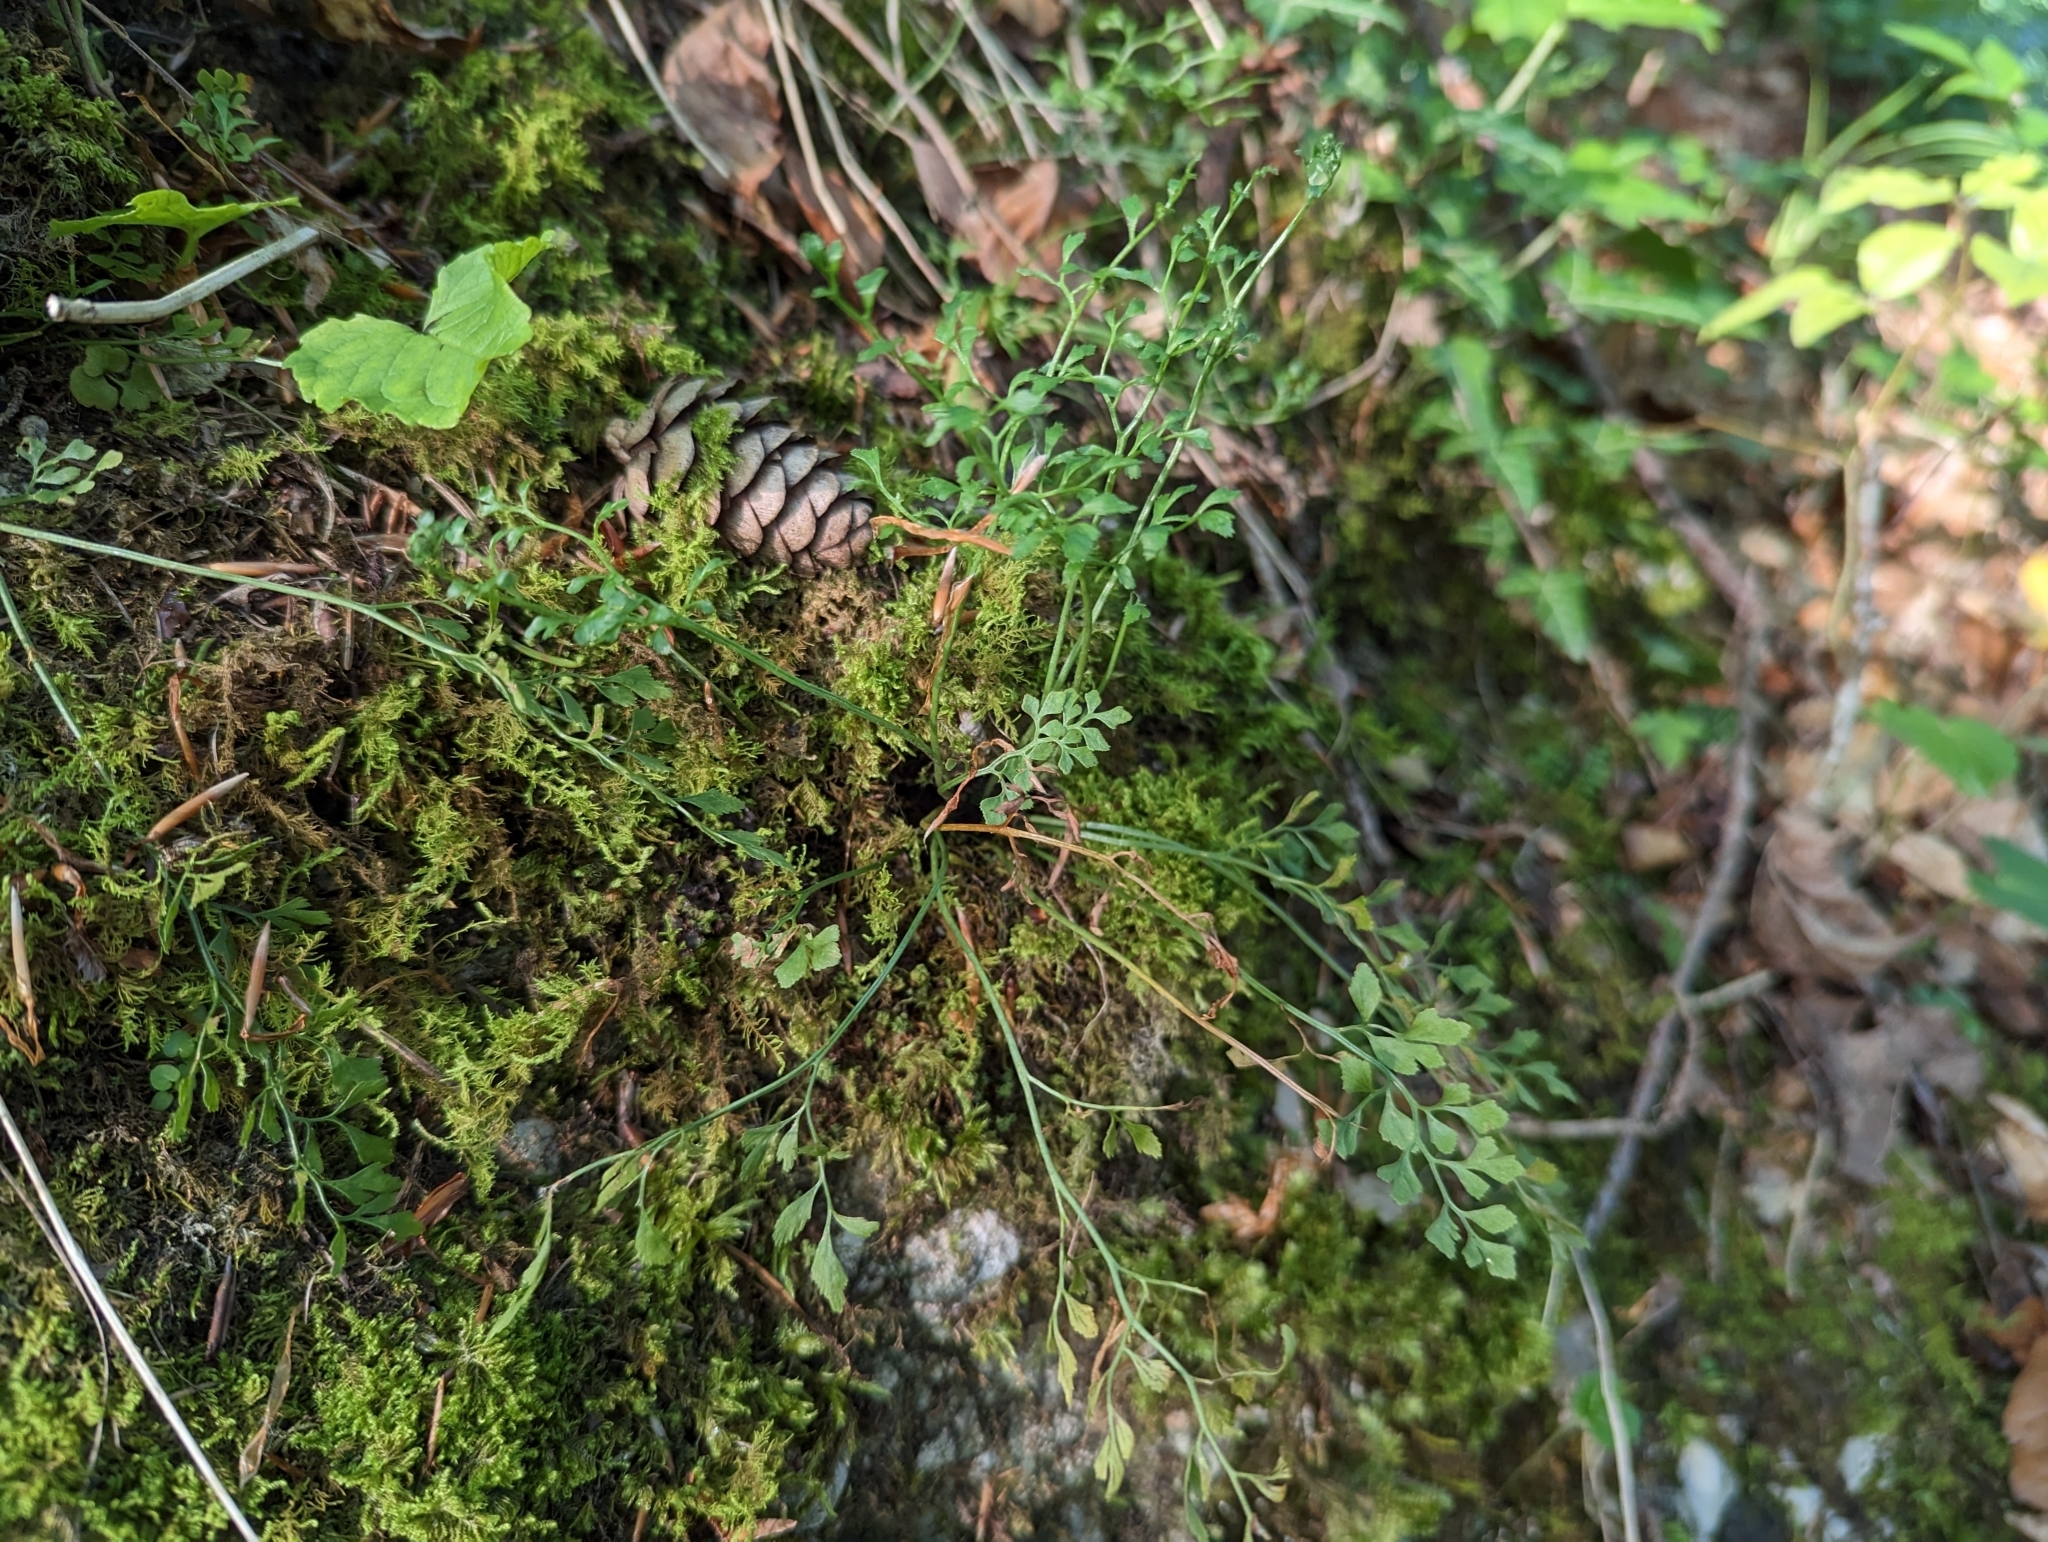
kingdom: Plantae
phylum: Tracheophyta
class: Polypodiopsida
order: Polypodiales
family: Aspleniaceae
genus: Asplenium
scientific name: Asplenium ruta-muraria
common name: Wall-rue
